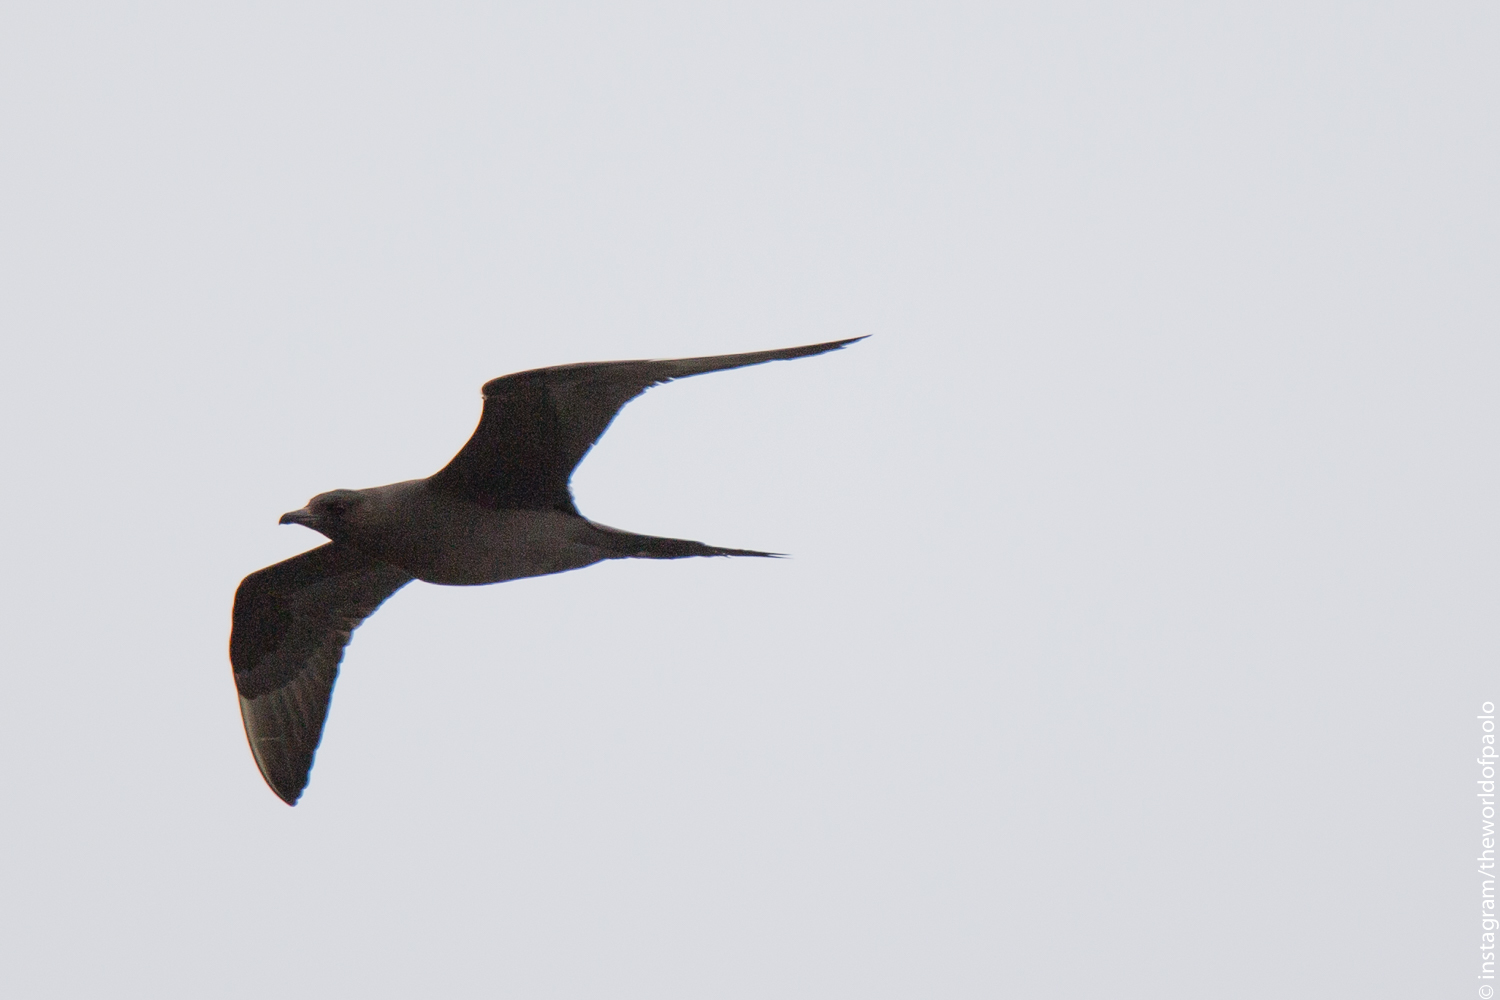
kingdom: Animalia
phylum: Chordata
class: Aves
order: Charadriiformes
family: Stercorariidae
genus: Stercorarius
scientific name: Stercorarius parasiticus
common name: Parasitic jaeger
